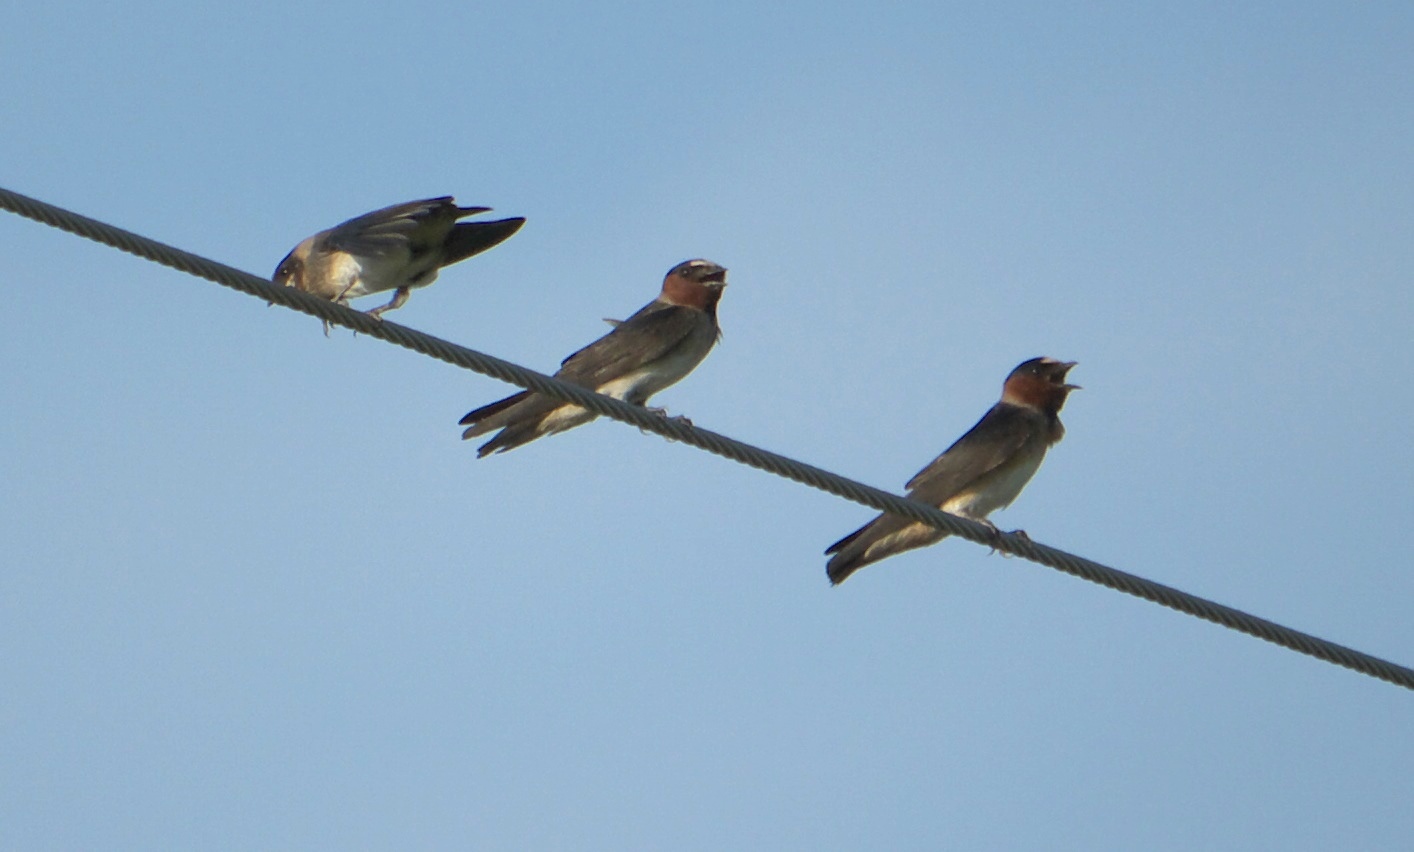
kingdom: Animalia
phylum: Chordata
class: Aves
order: Passeriformes
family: Hirundinidae
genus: Petrochelidon
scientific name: Petrochelidon pyrrhonota
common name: American cliff swallow
